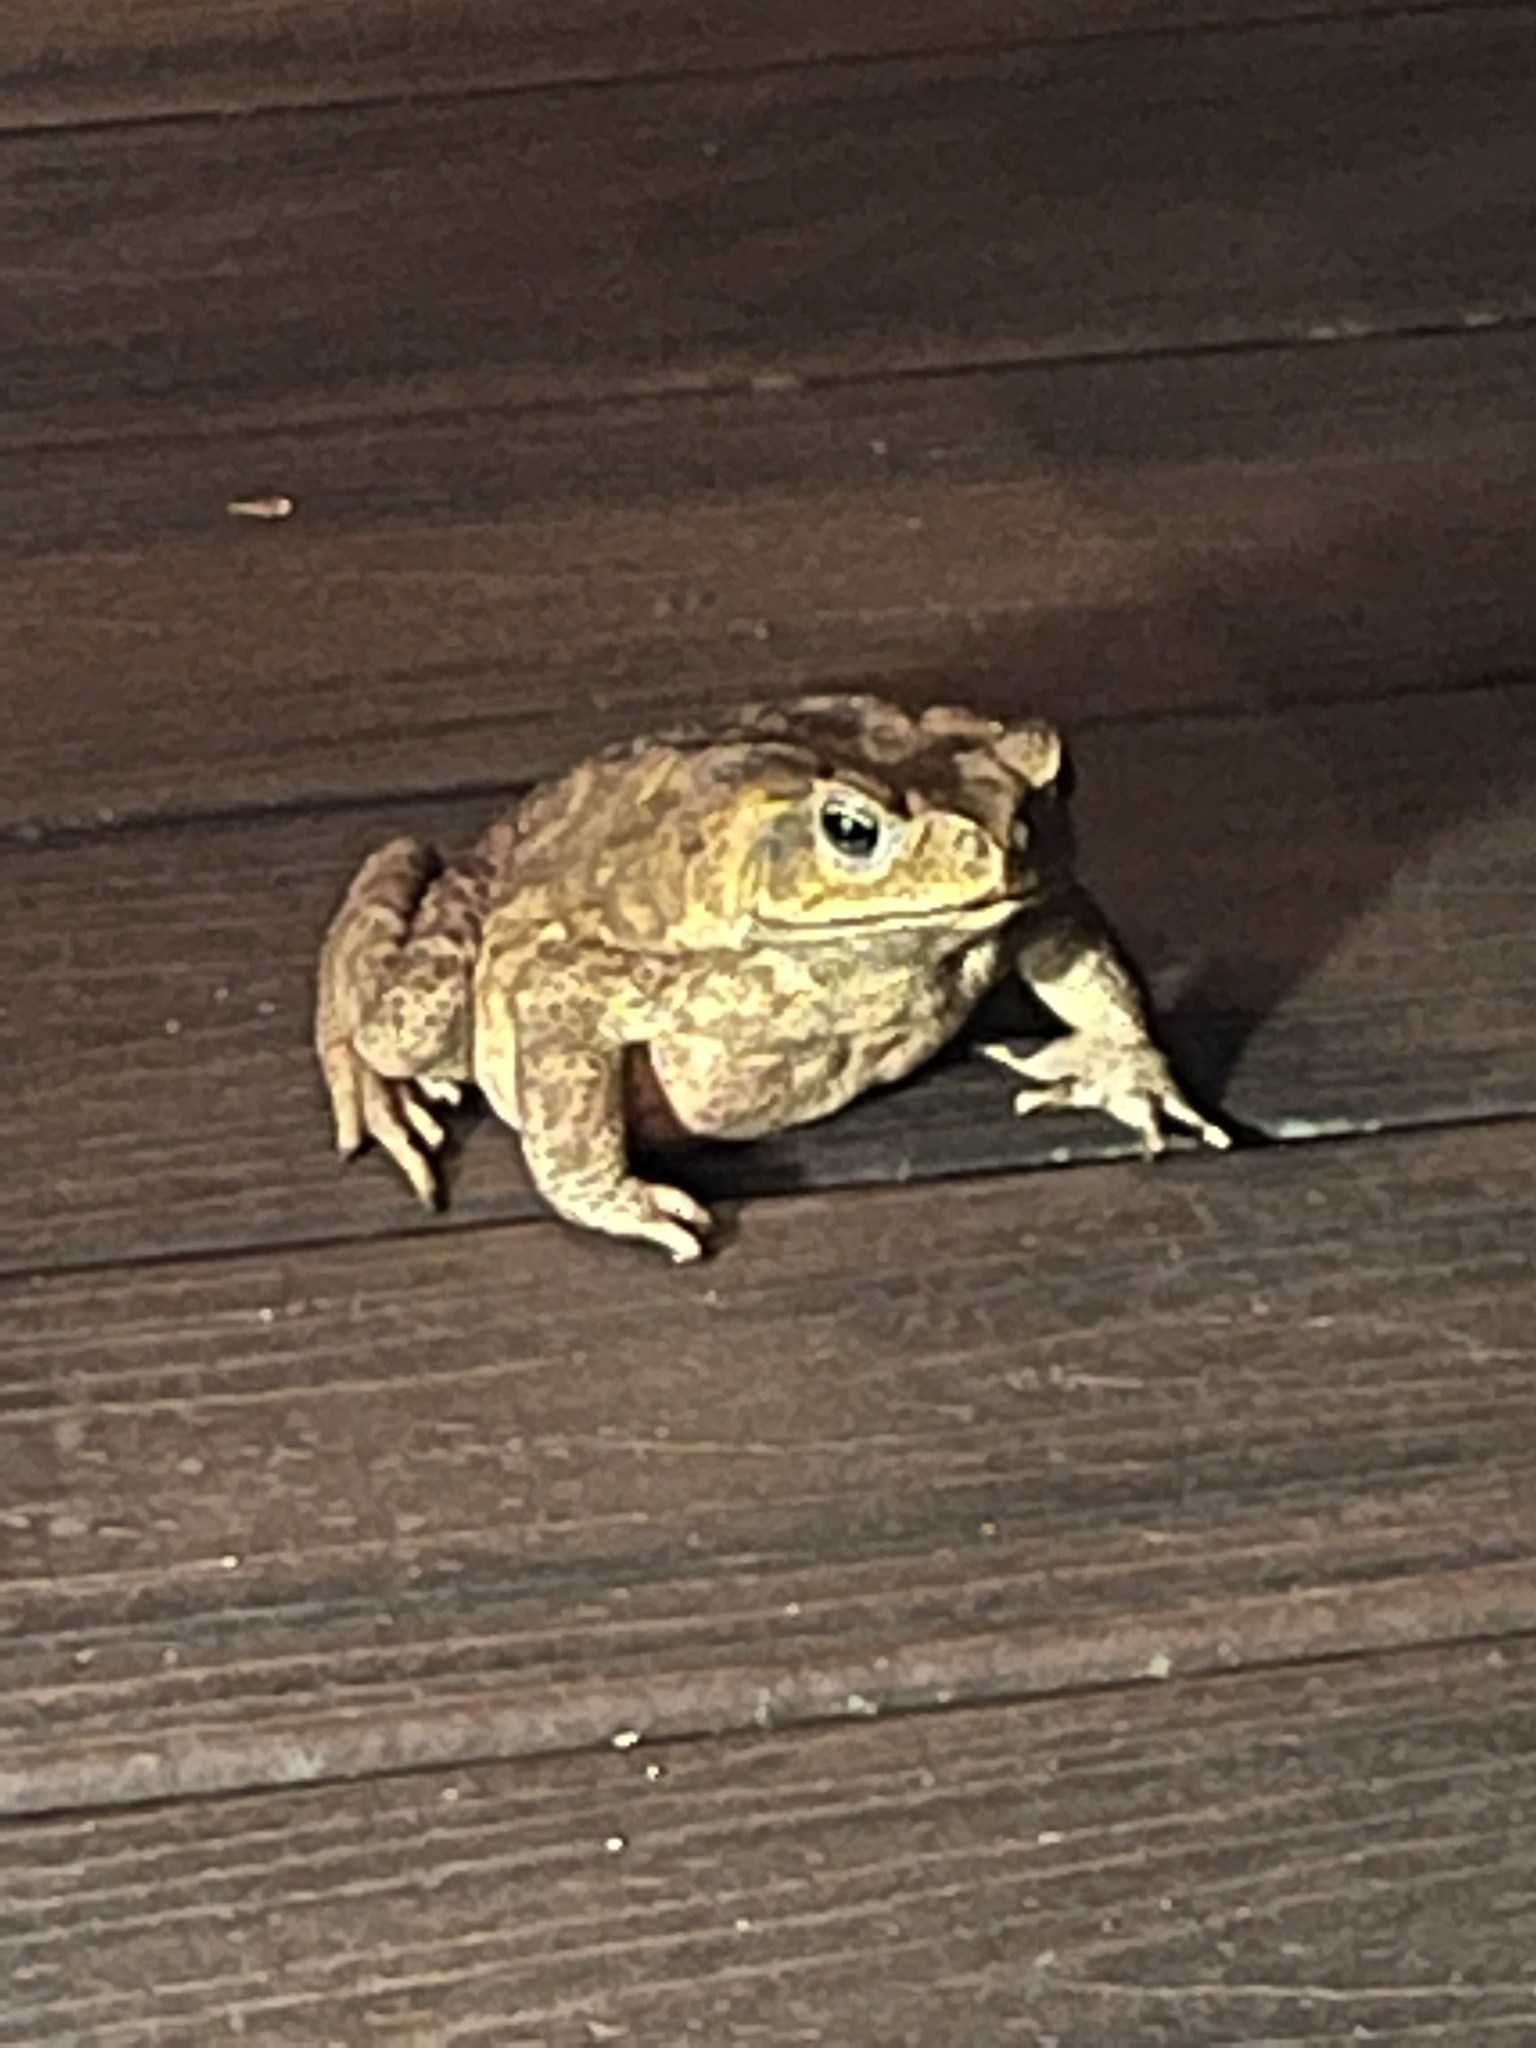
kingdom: Animalia
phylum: Chordata
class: Amphibia
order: Anura
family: Bufonidae
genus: Rhinella
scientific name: Rhinella horribilis
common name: Mesoamerican cane toad
